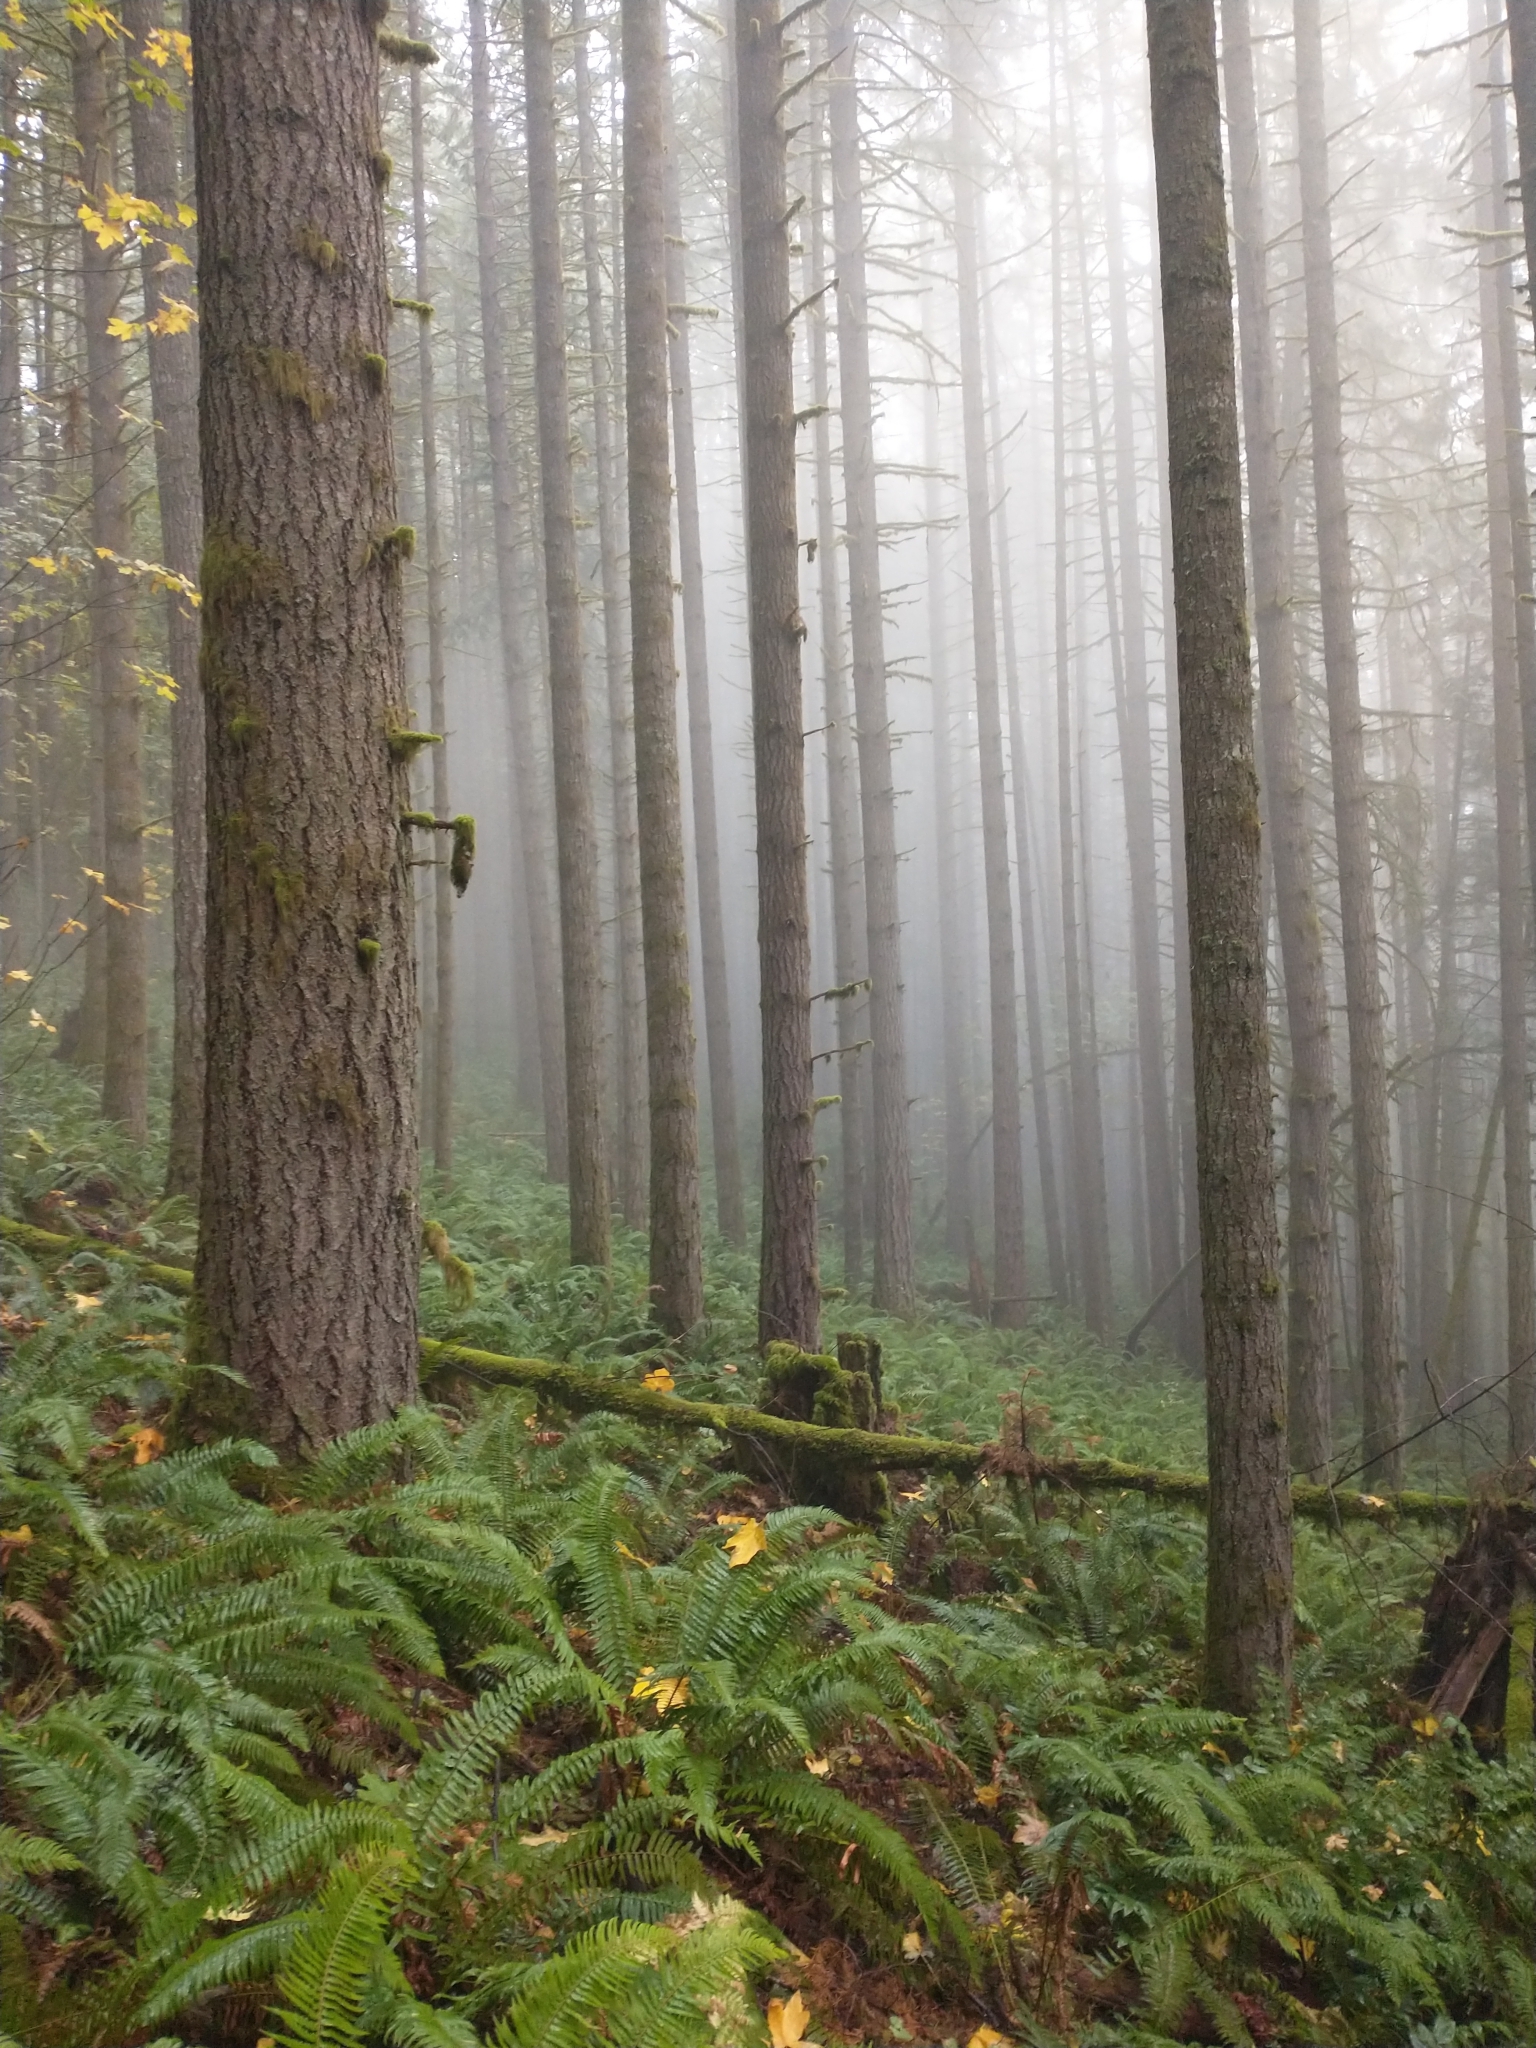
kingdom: Plantae
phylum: Tracheophyta
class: Pinopsida
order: Pinales
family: Pinaceae
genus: Pseudotsuga
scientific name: Pseudotsuga menziesii
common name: Douglas fir
